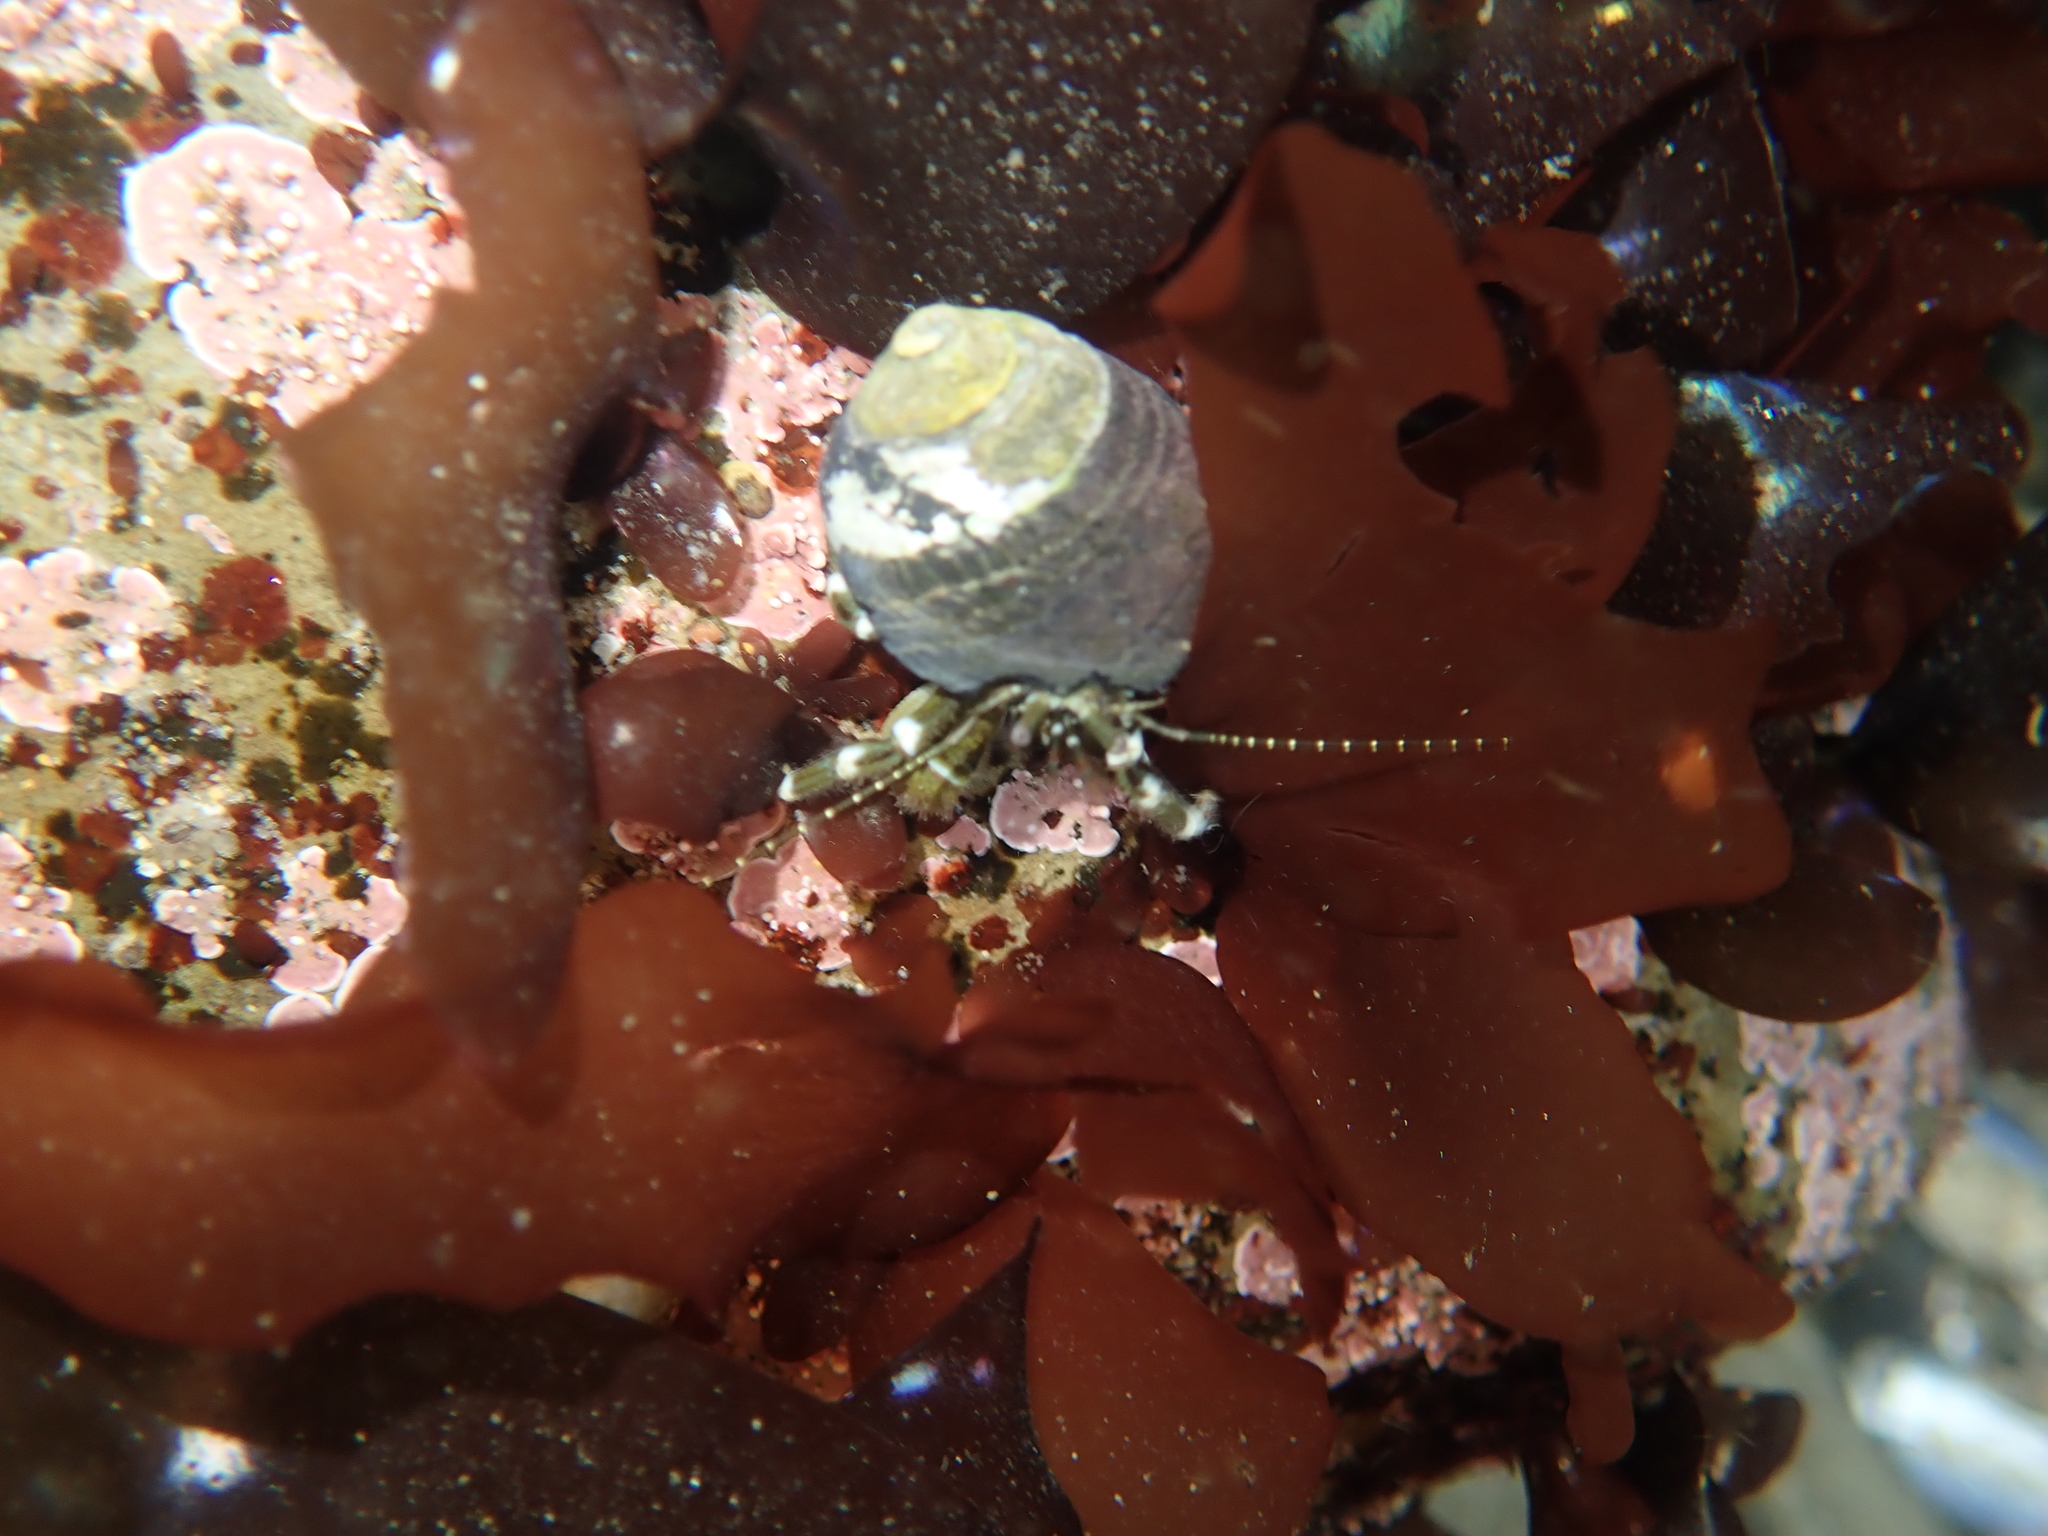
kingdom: Animalia
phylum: Arthropoda
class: Malacostraca
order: Decapoda
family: Paguridae
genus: Pagurus
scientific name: Pagurus hirsutiusculus
